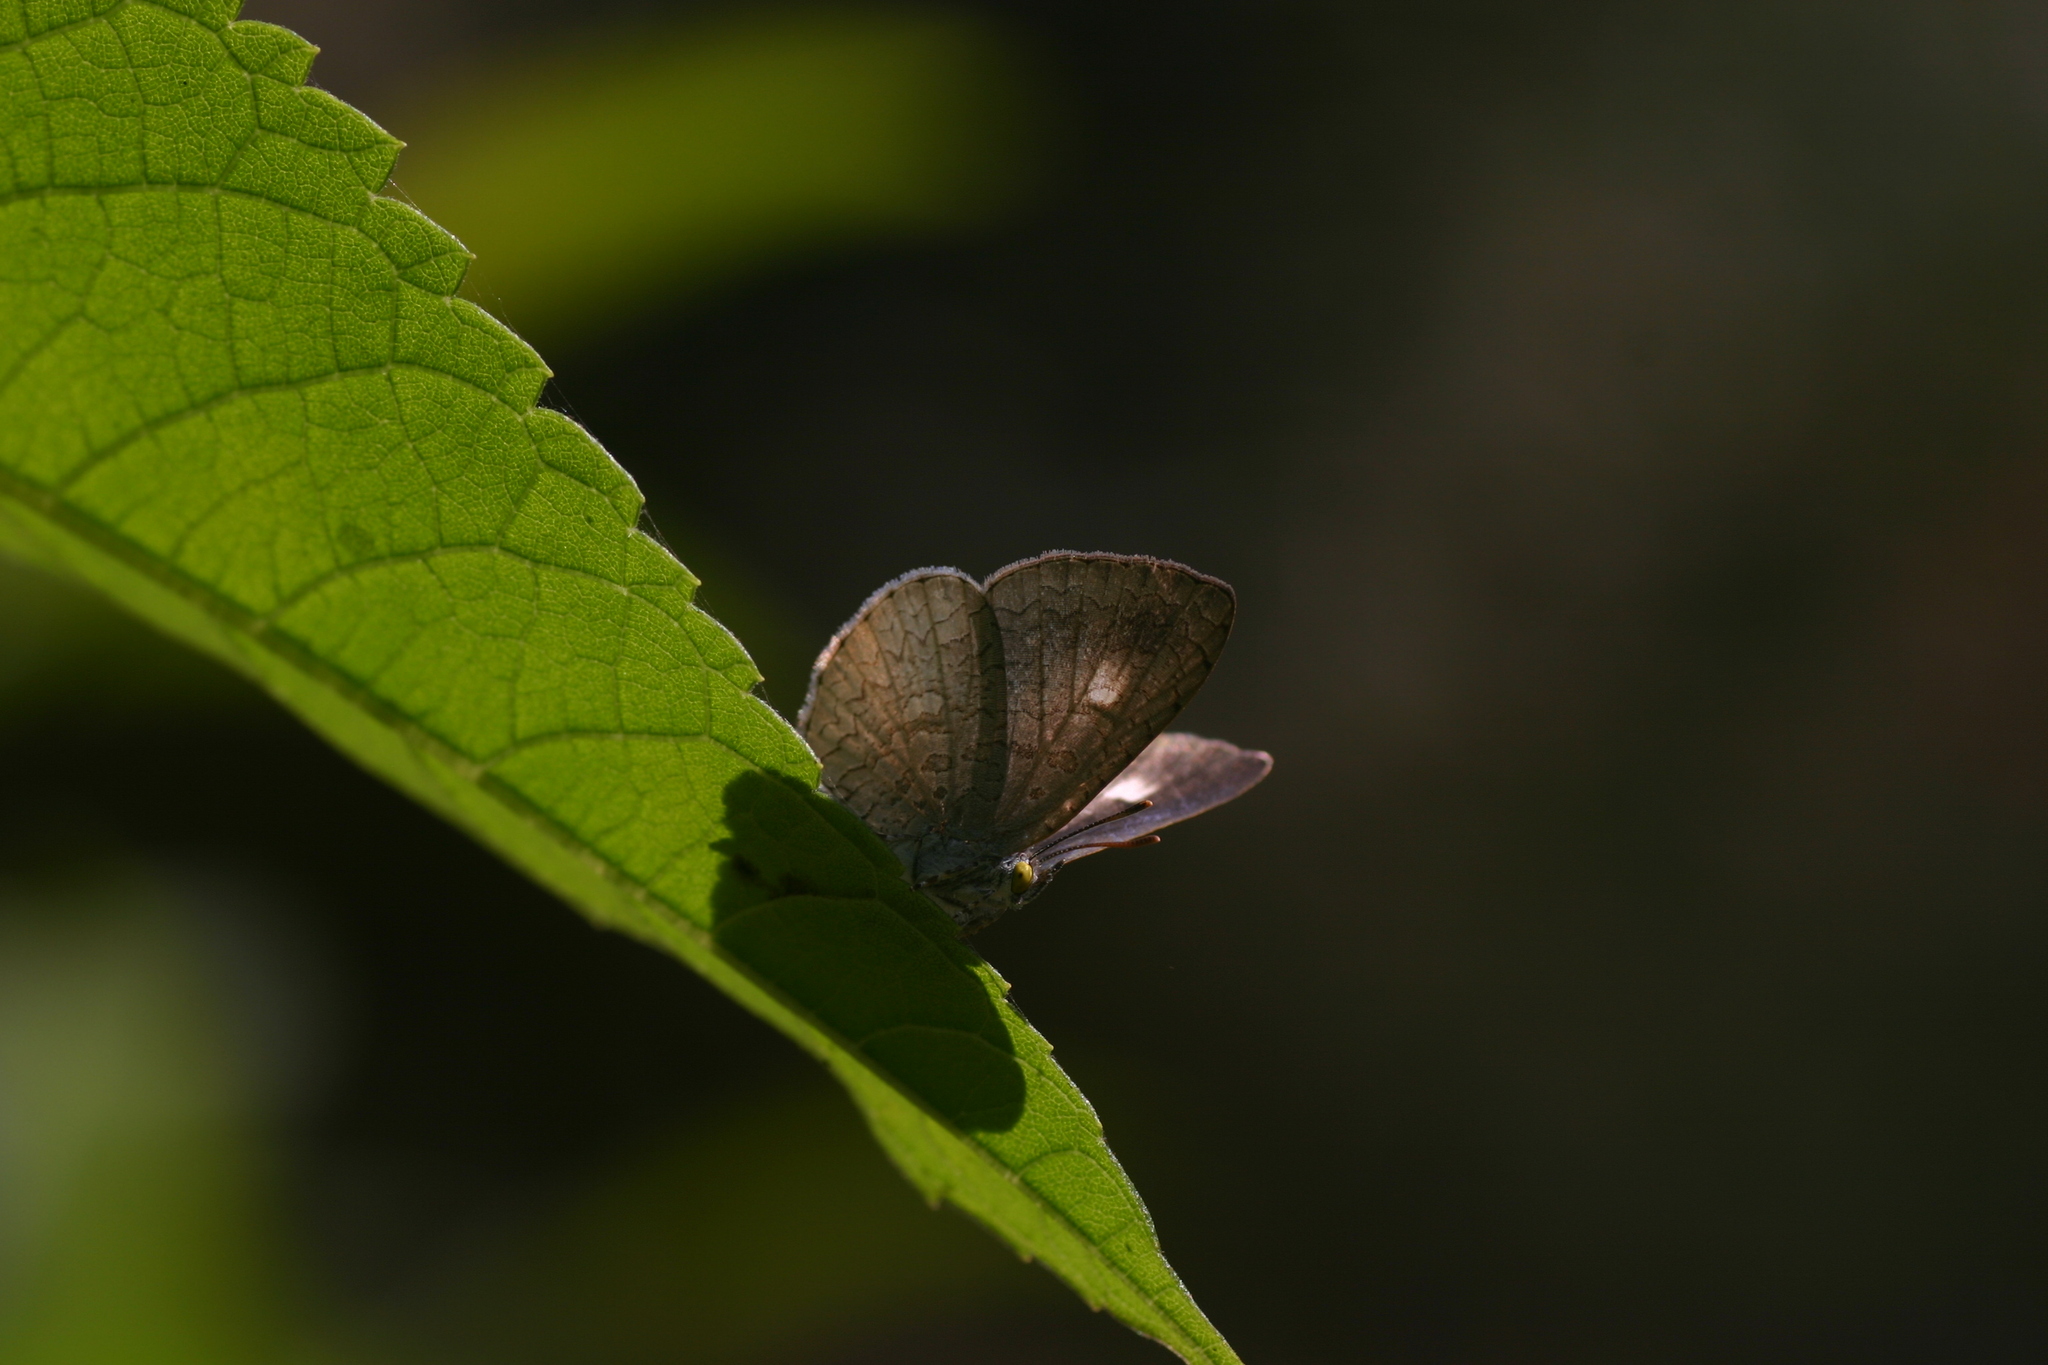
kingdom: Animalia
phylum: Arthropoda
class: Insecta
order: Lepidoptera
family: Lycaenidae
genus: Spalgis
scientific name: Spalgis epius
